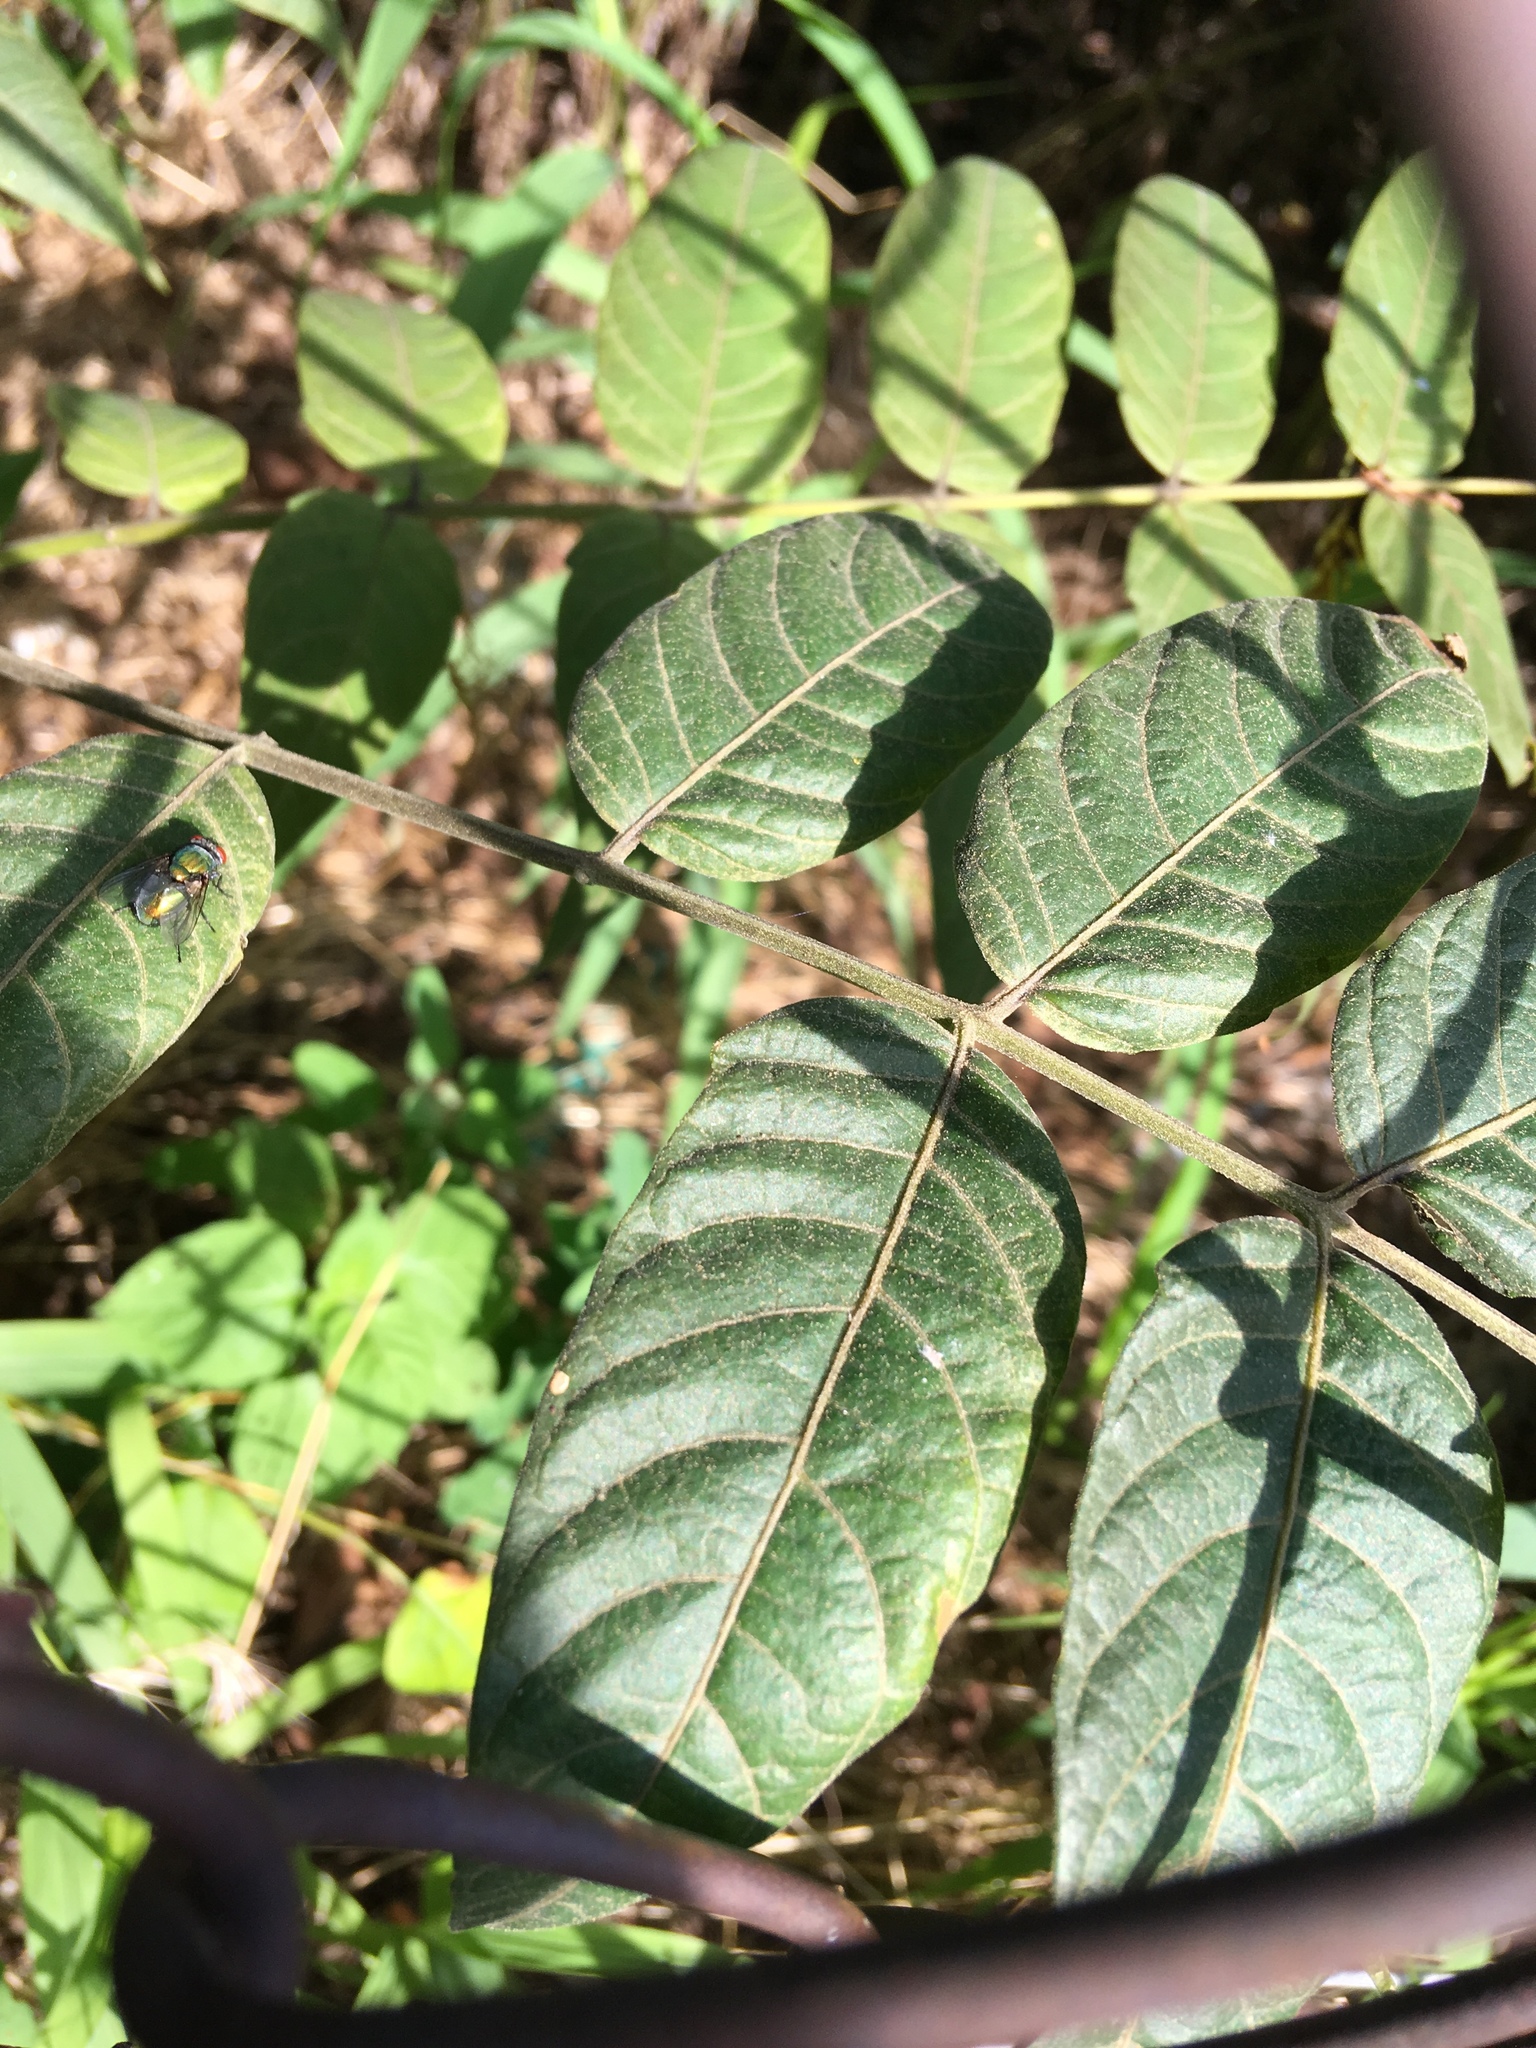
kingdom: Plantae
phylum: Tracheophyta
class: Magnoliopsida
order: Sapindales
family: Simaroubaceae
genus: Ailanthus
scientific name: Ailanthus altissima
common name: Tree-of-heaven
